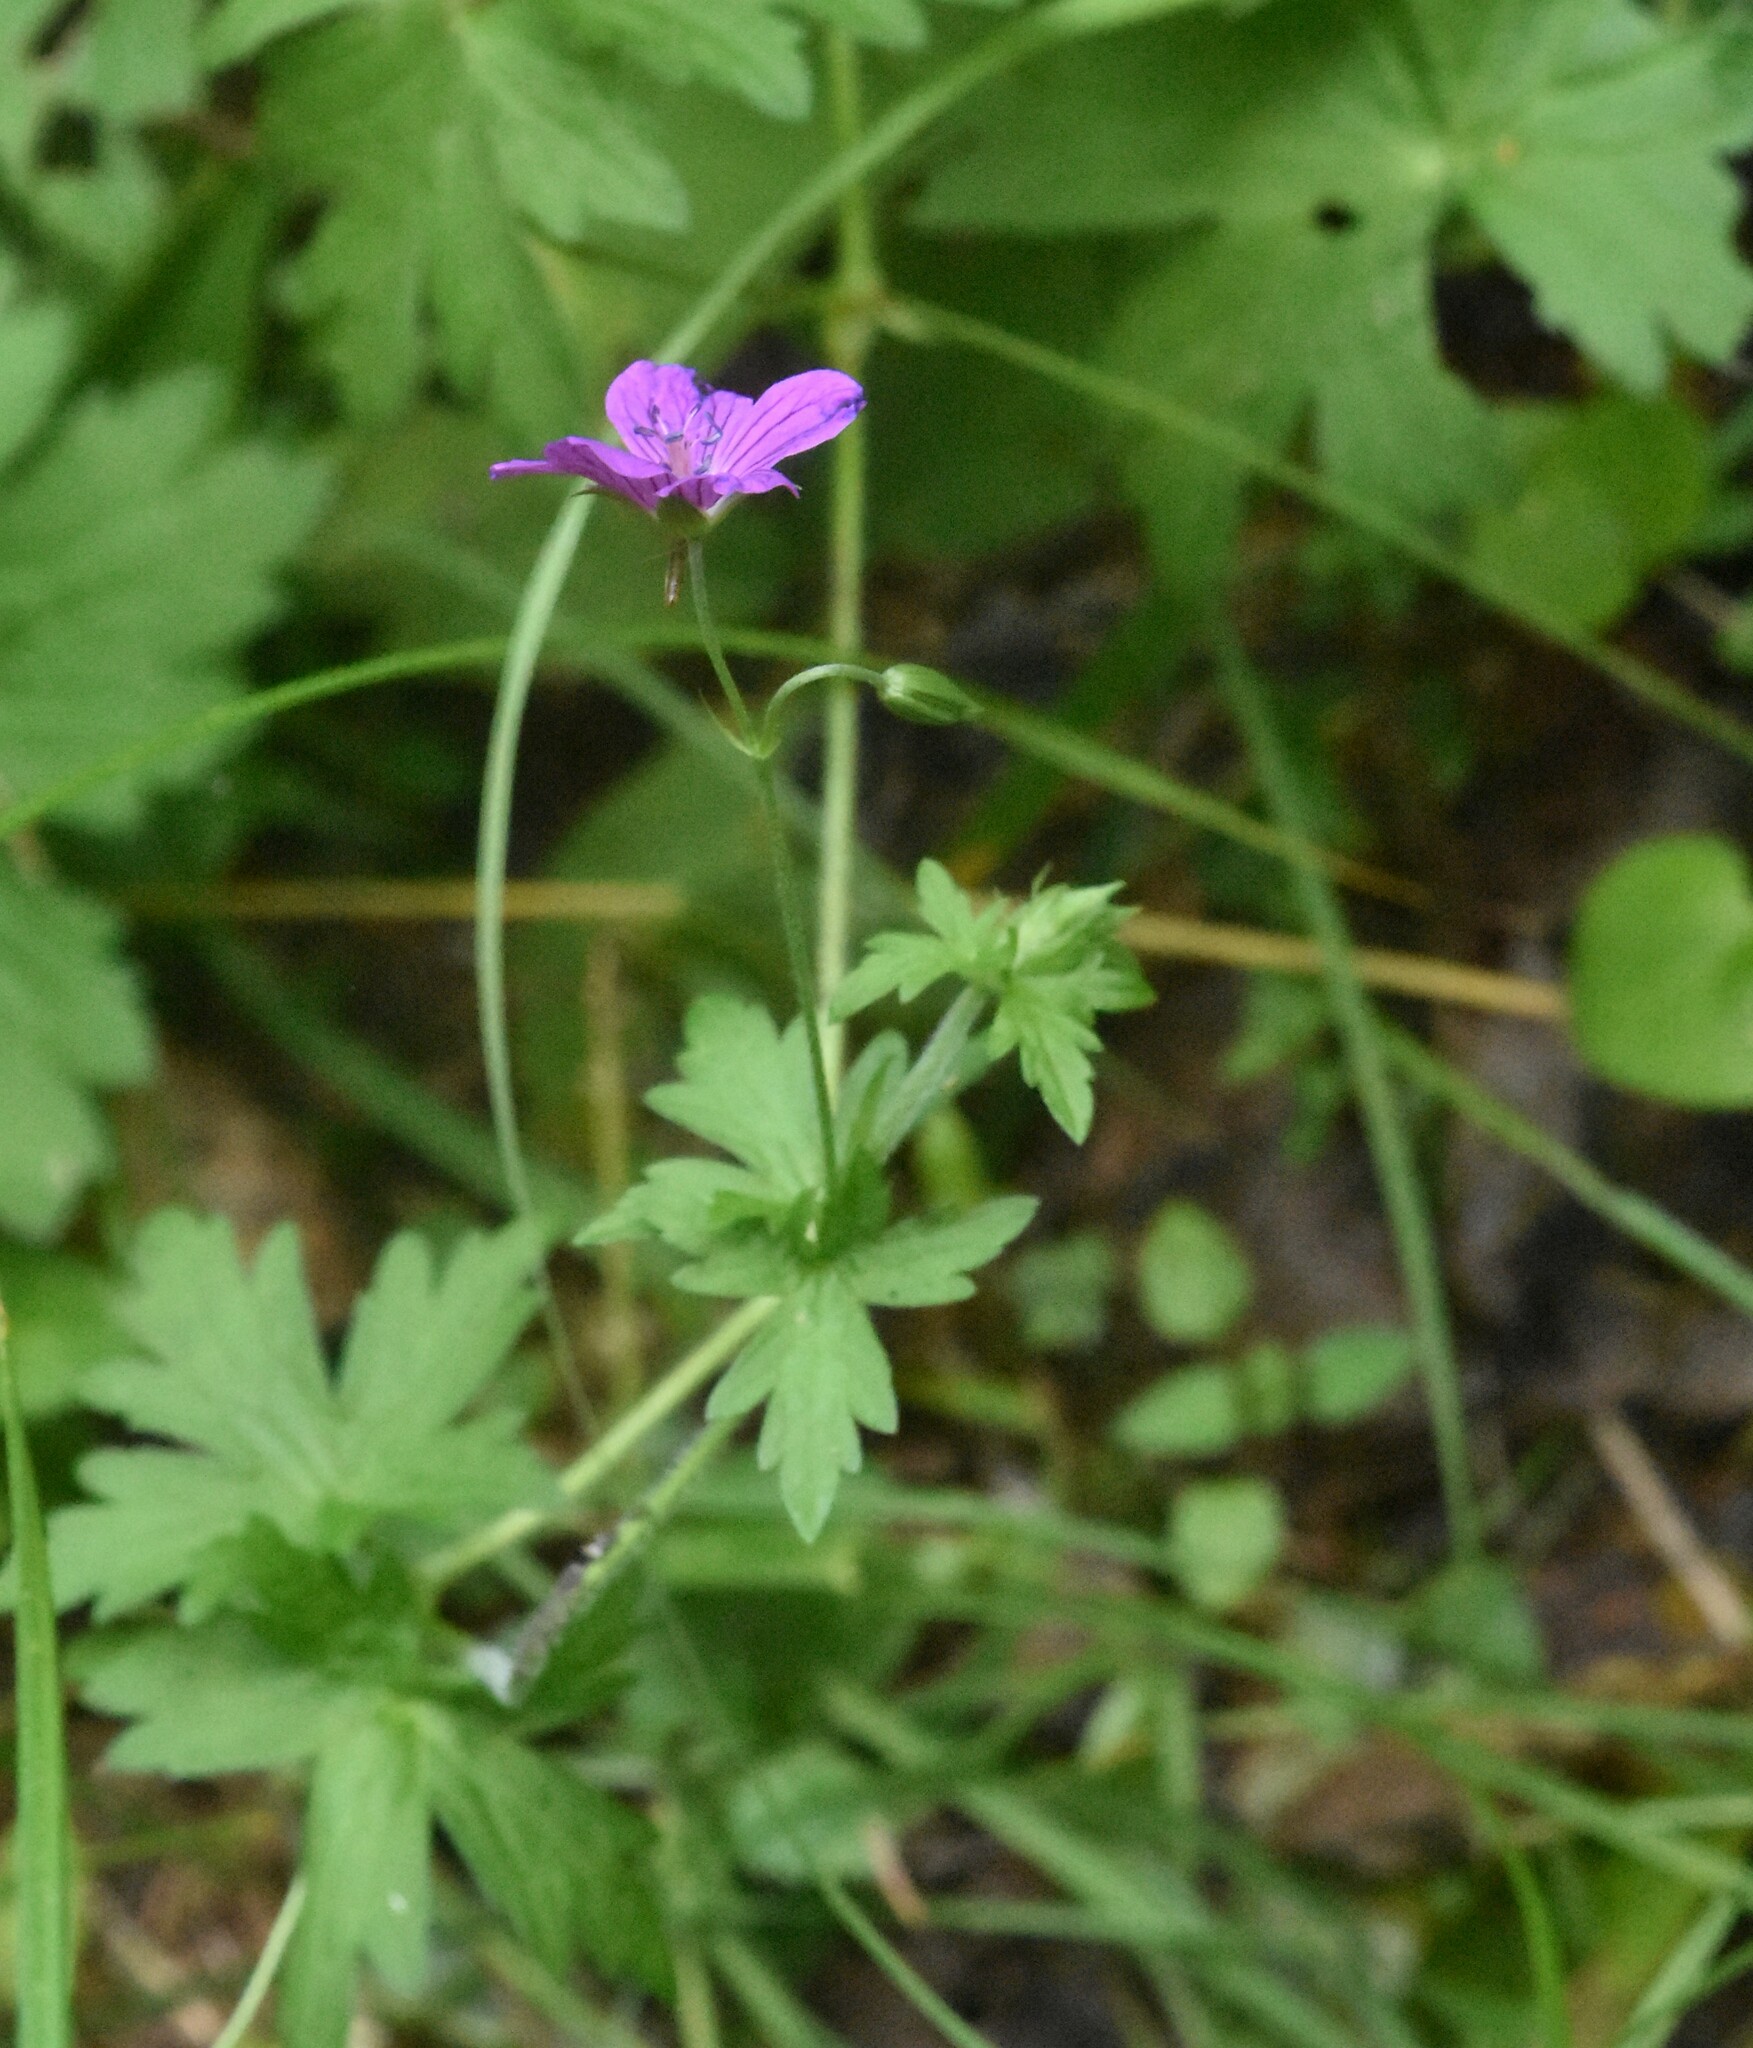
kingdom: Plantae
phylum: Tracheophyta
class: Magnoliopsida
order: Geraniales
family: Geraniaceae
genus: Geranium
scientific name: Geranium palustre
